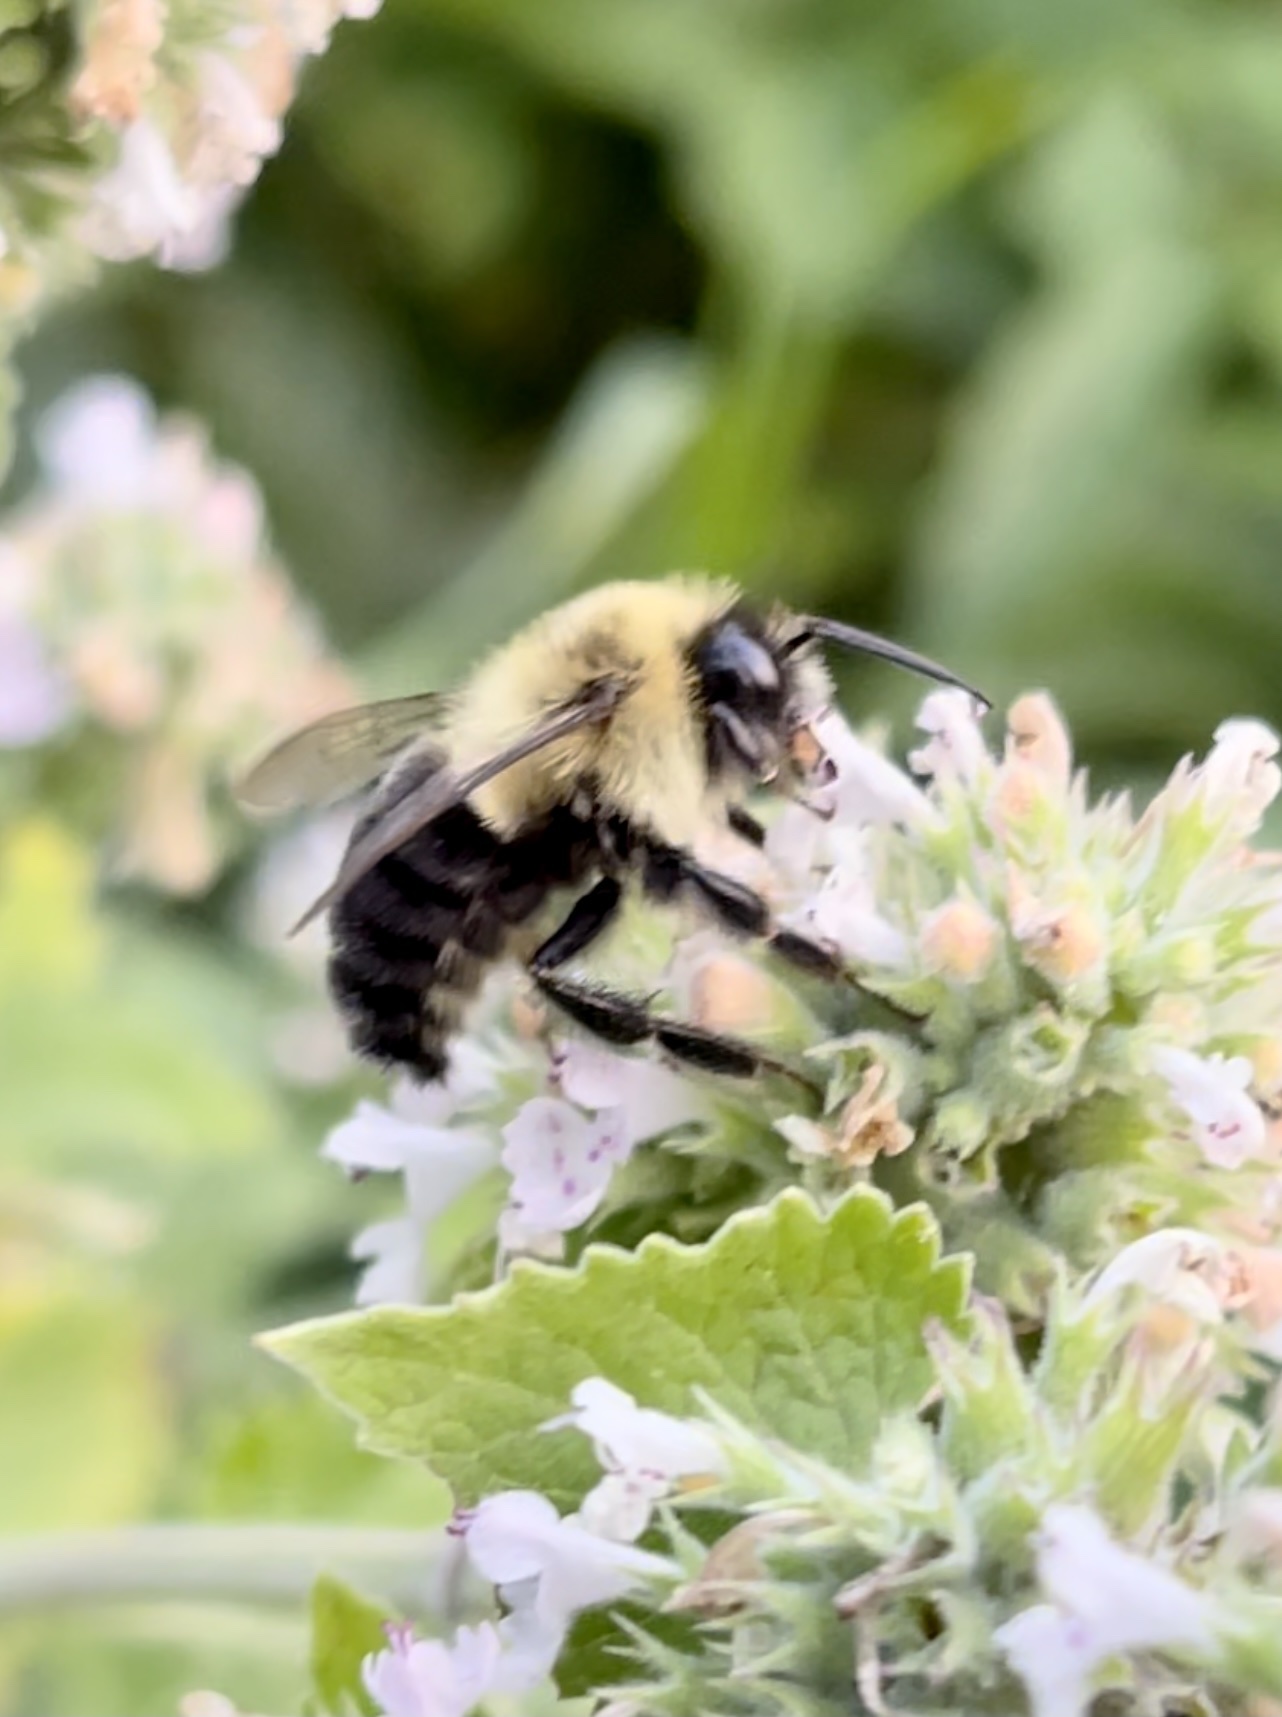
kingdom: Animalia
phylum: Arthropoda
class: Insecta
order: Hymenoptera
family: Apidae
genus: Bombus
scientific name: Bombus impatiens
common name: Common eastern bumble bee
